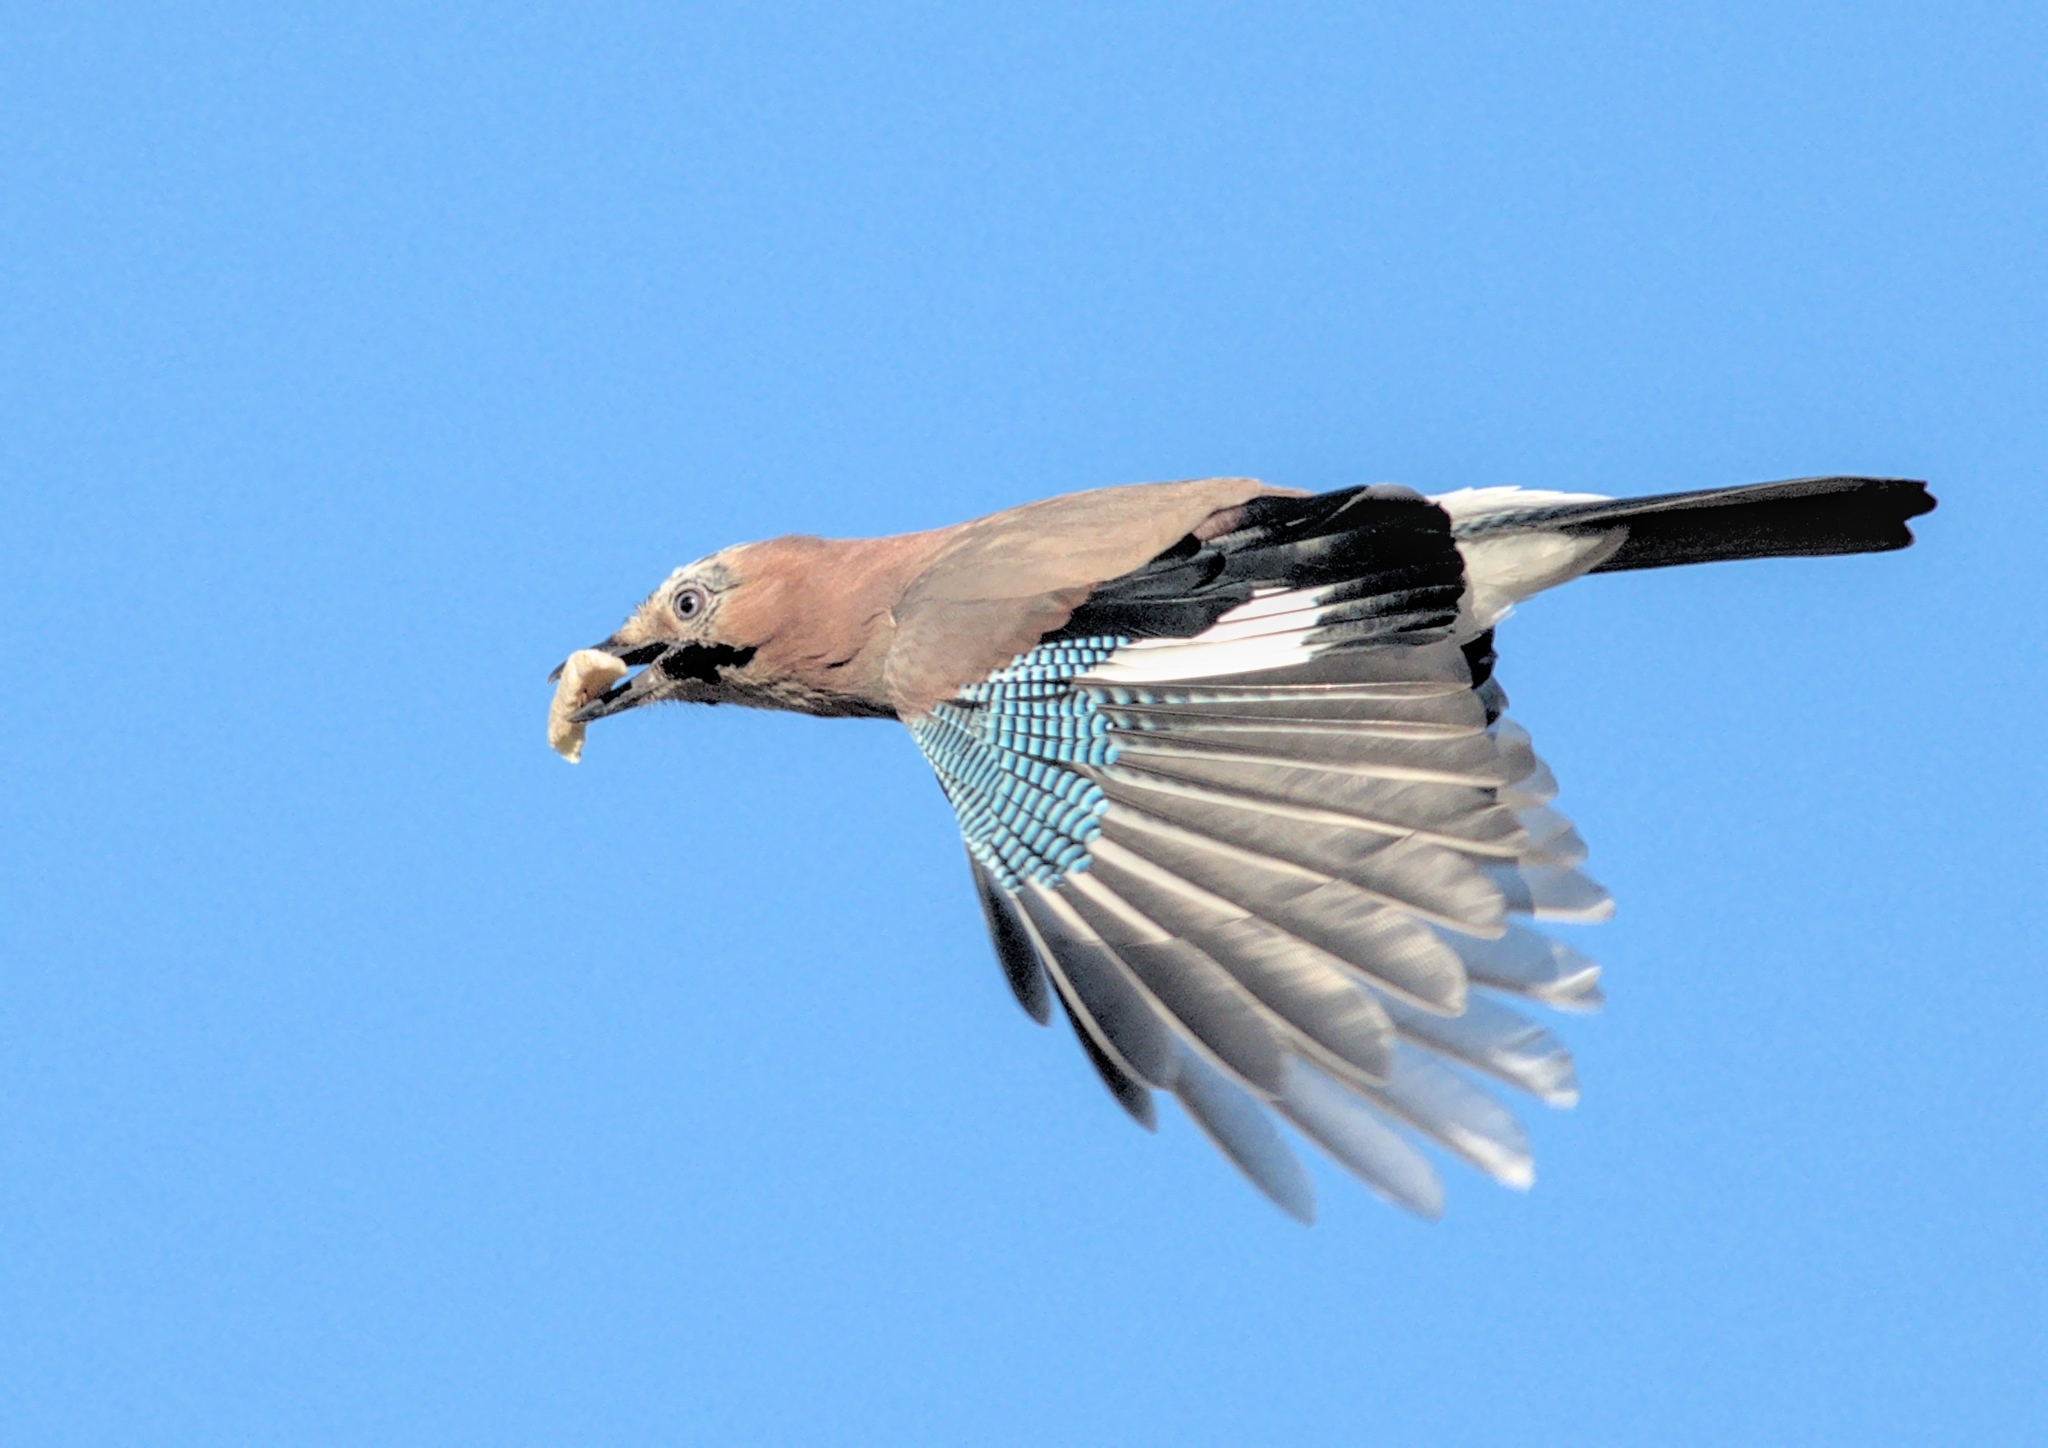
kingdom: Animalia
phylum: Chordata
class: Aves
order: Passeriformes
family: Corvidae
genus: Garrulus
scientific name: Garrulus glandarius
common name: Eurasian jay
